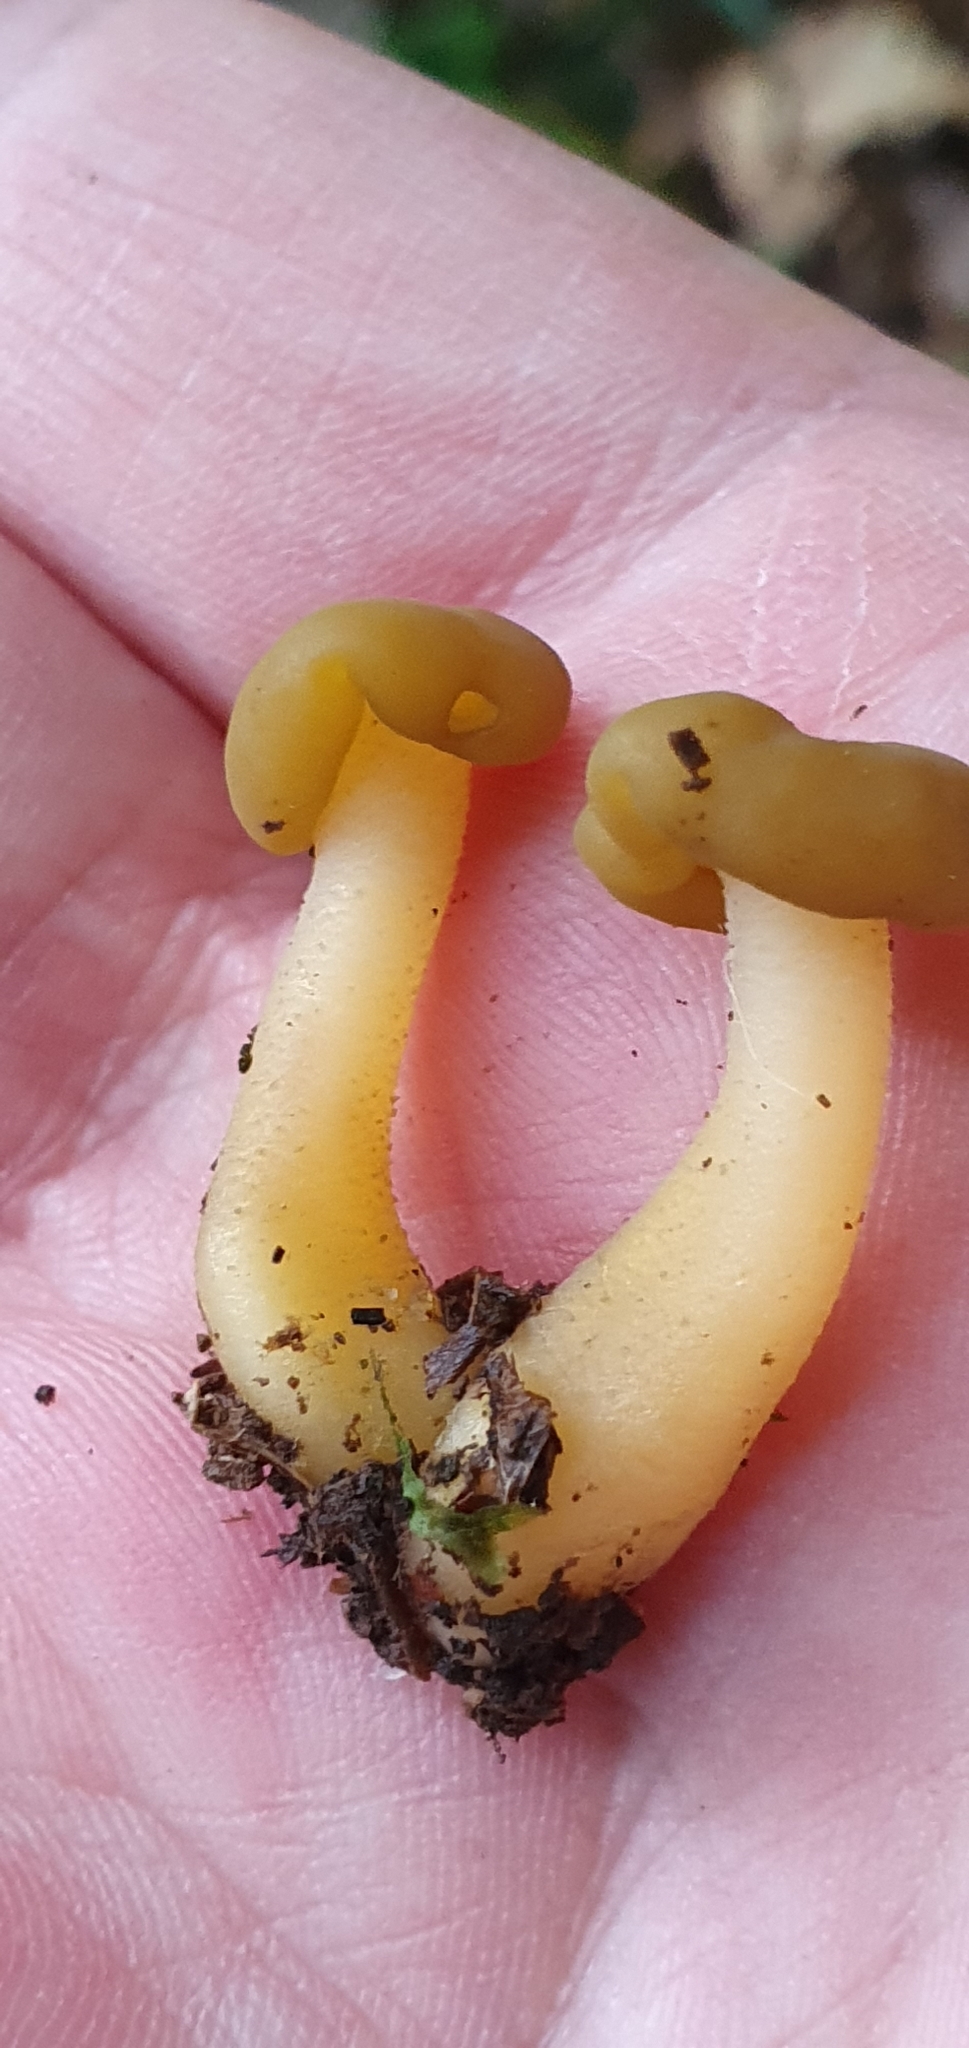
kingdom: Fungi
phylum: Ascomycota
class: Leotiomycetes
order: Leotiales
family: Leotiaceae
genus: Leotia
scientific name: Leotia lubrica
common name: Jellybaby
